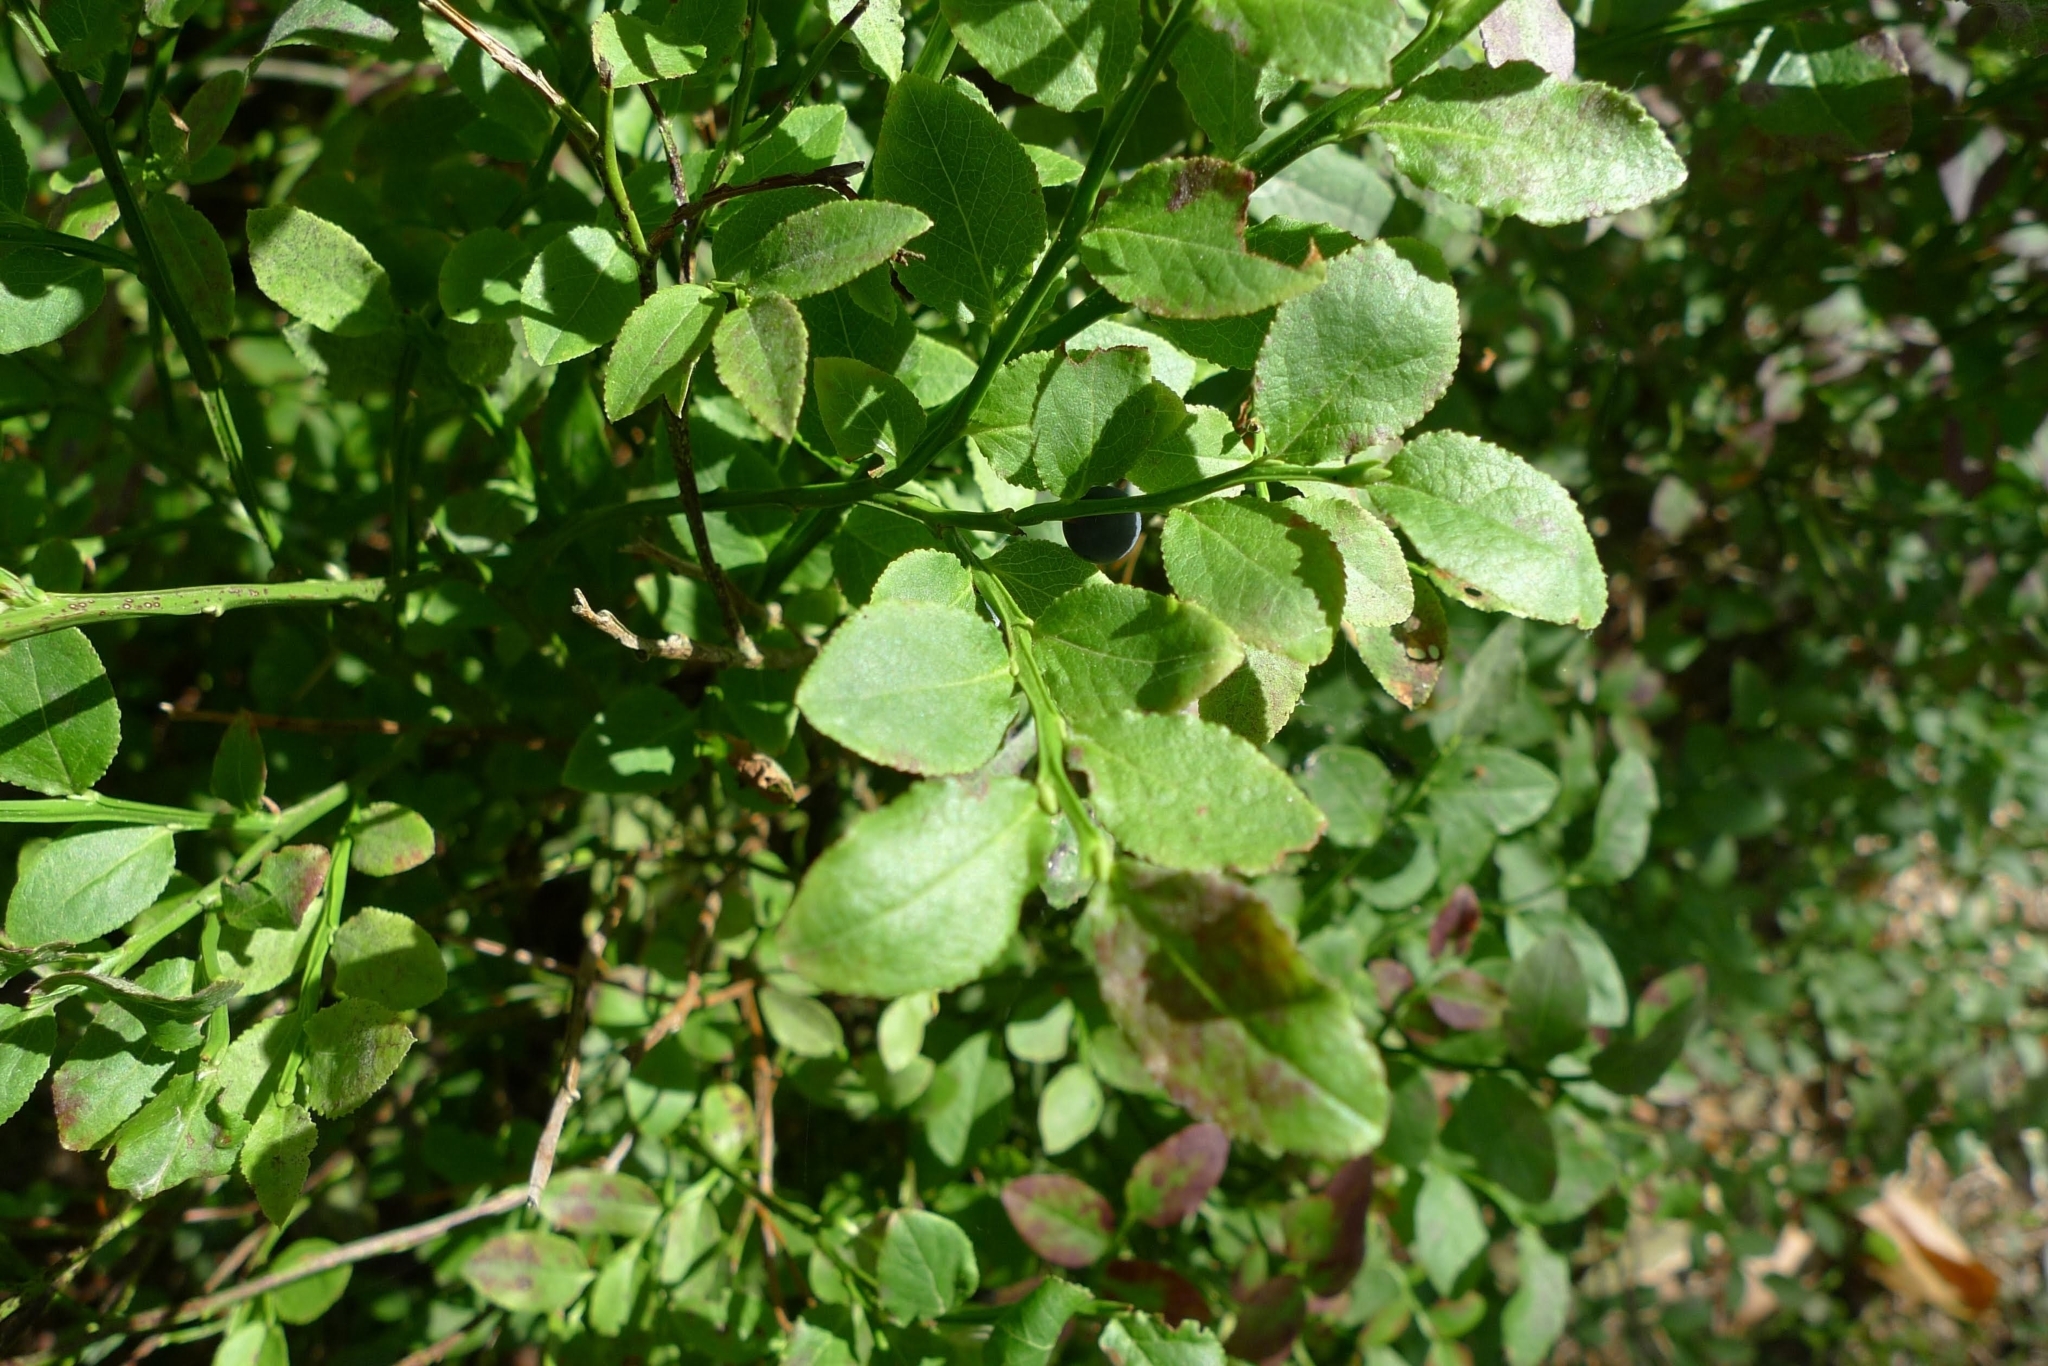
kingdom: Plantae
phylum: Tracheophyta
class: Magnoliopsida
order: Ericales
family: Ericaceae
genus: Vaccinium
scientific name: Vaccinium myrtillus
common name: Bilberry
